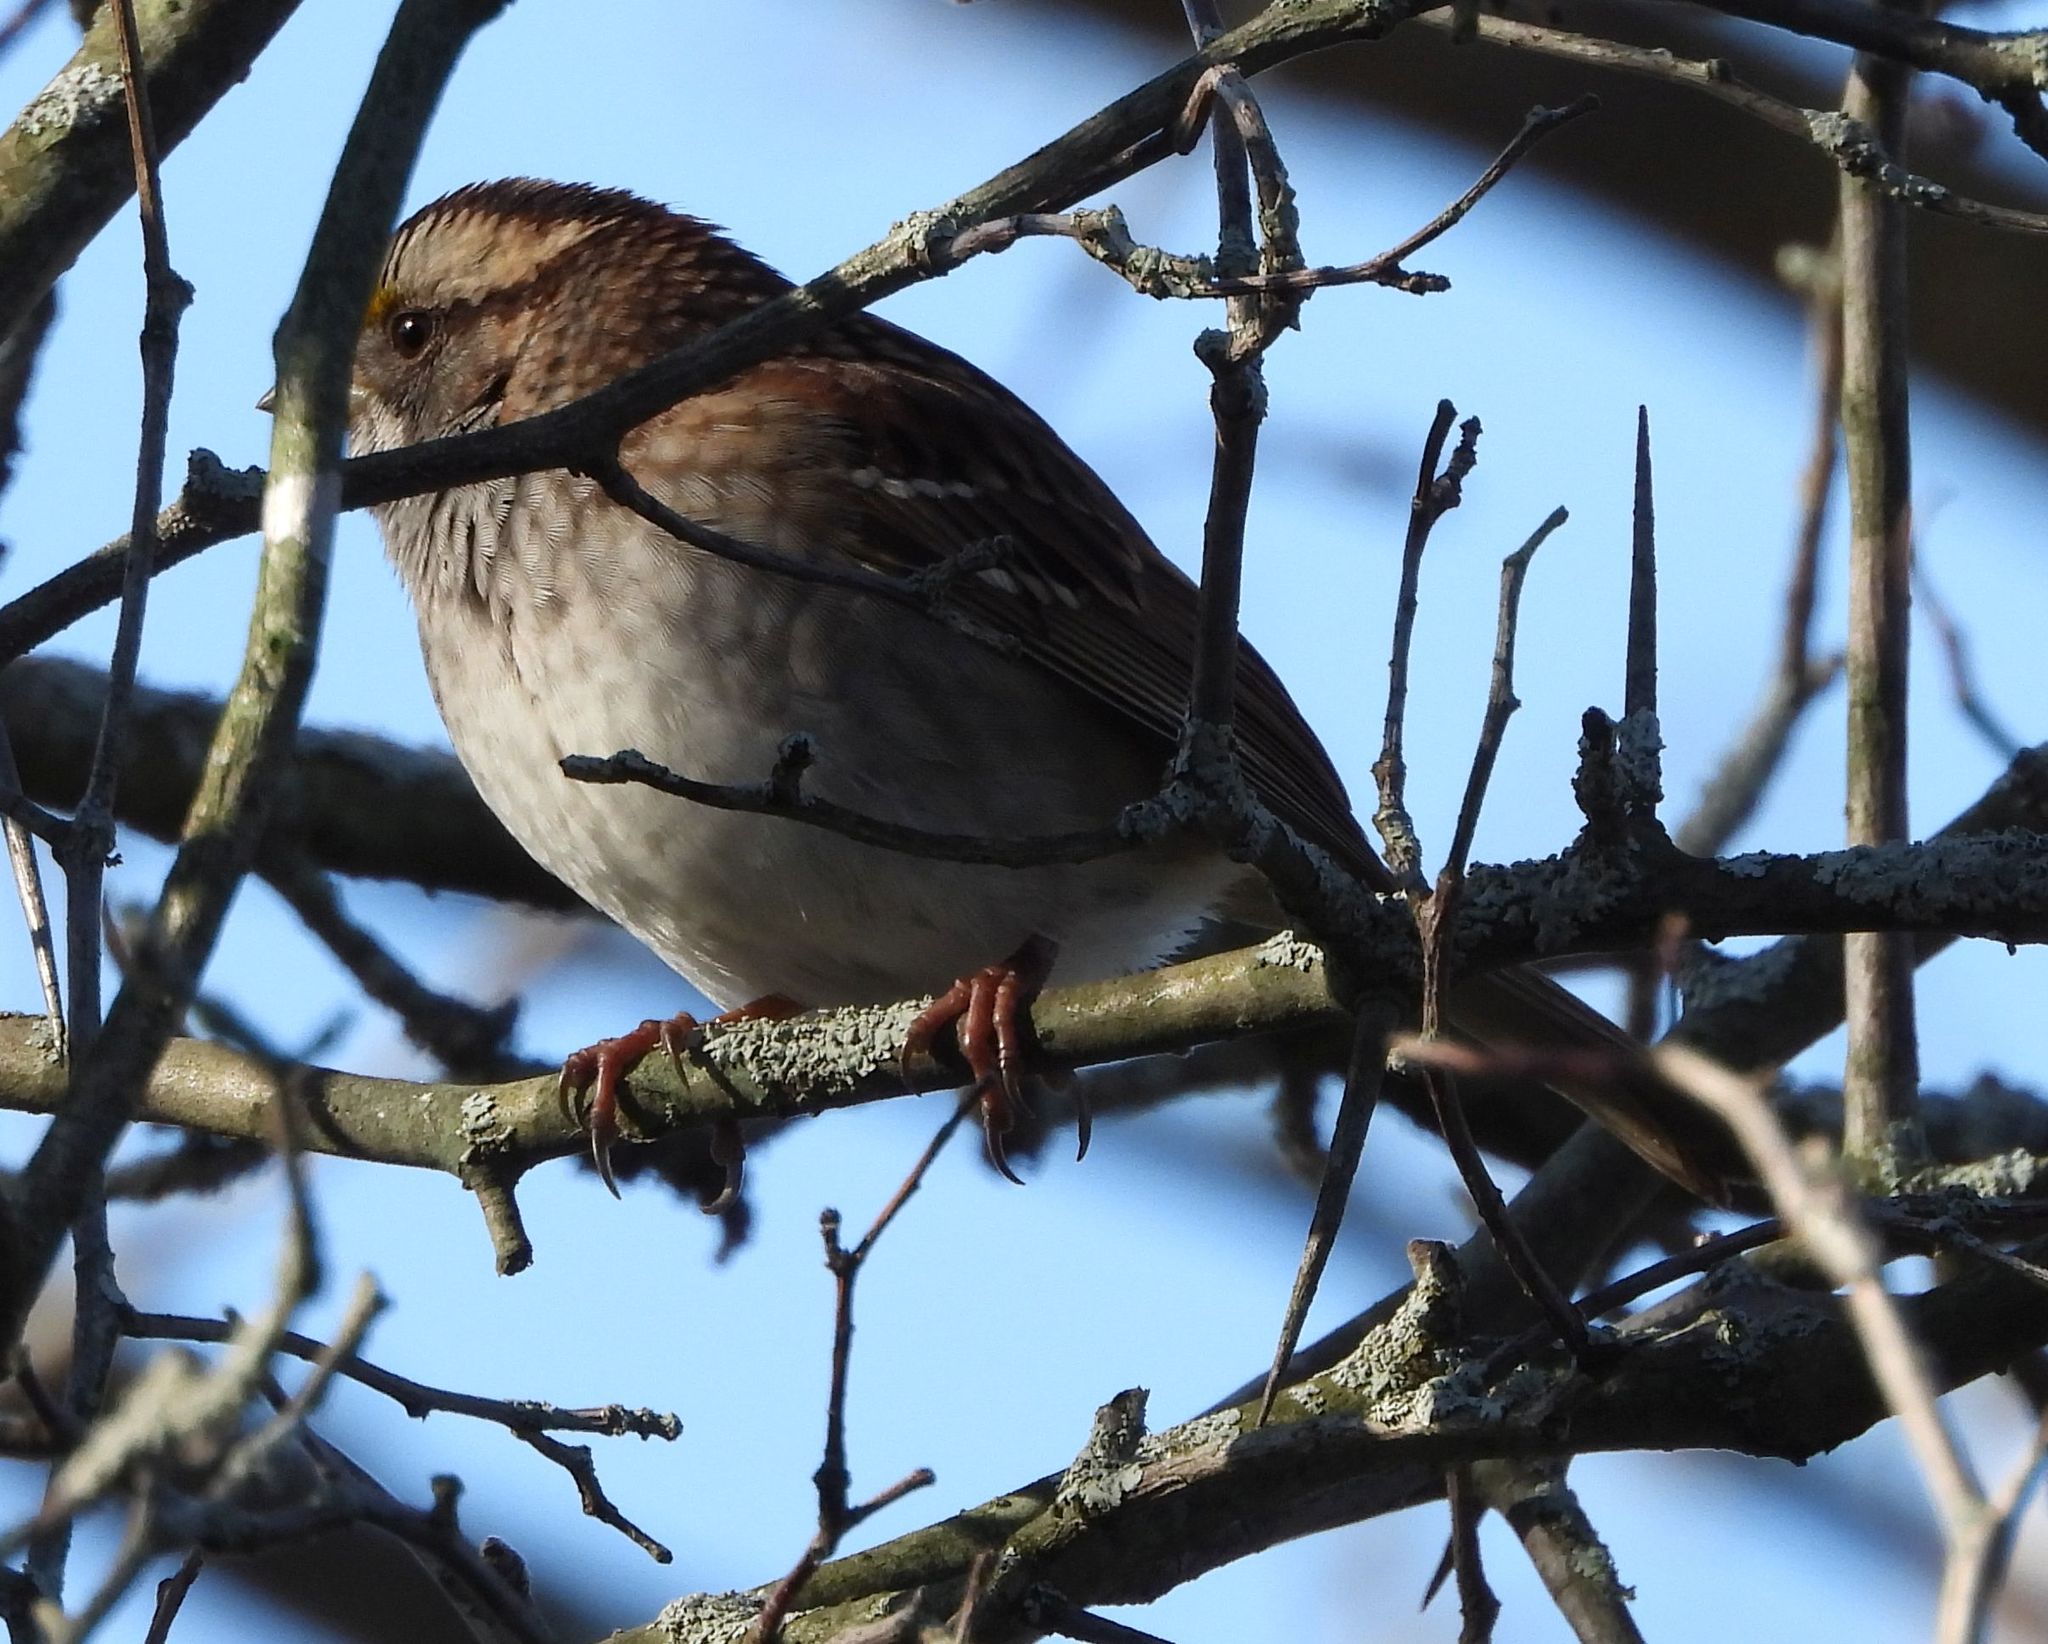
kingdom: Animalia
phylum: Chordata
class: Aves
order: Passeriformes
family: Passerellidae
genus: Zonotrichia
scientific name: Zonotrichia albicollis
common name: White-throated sparrow
